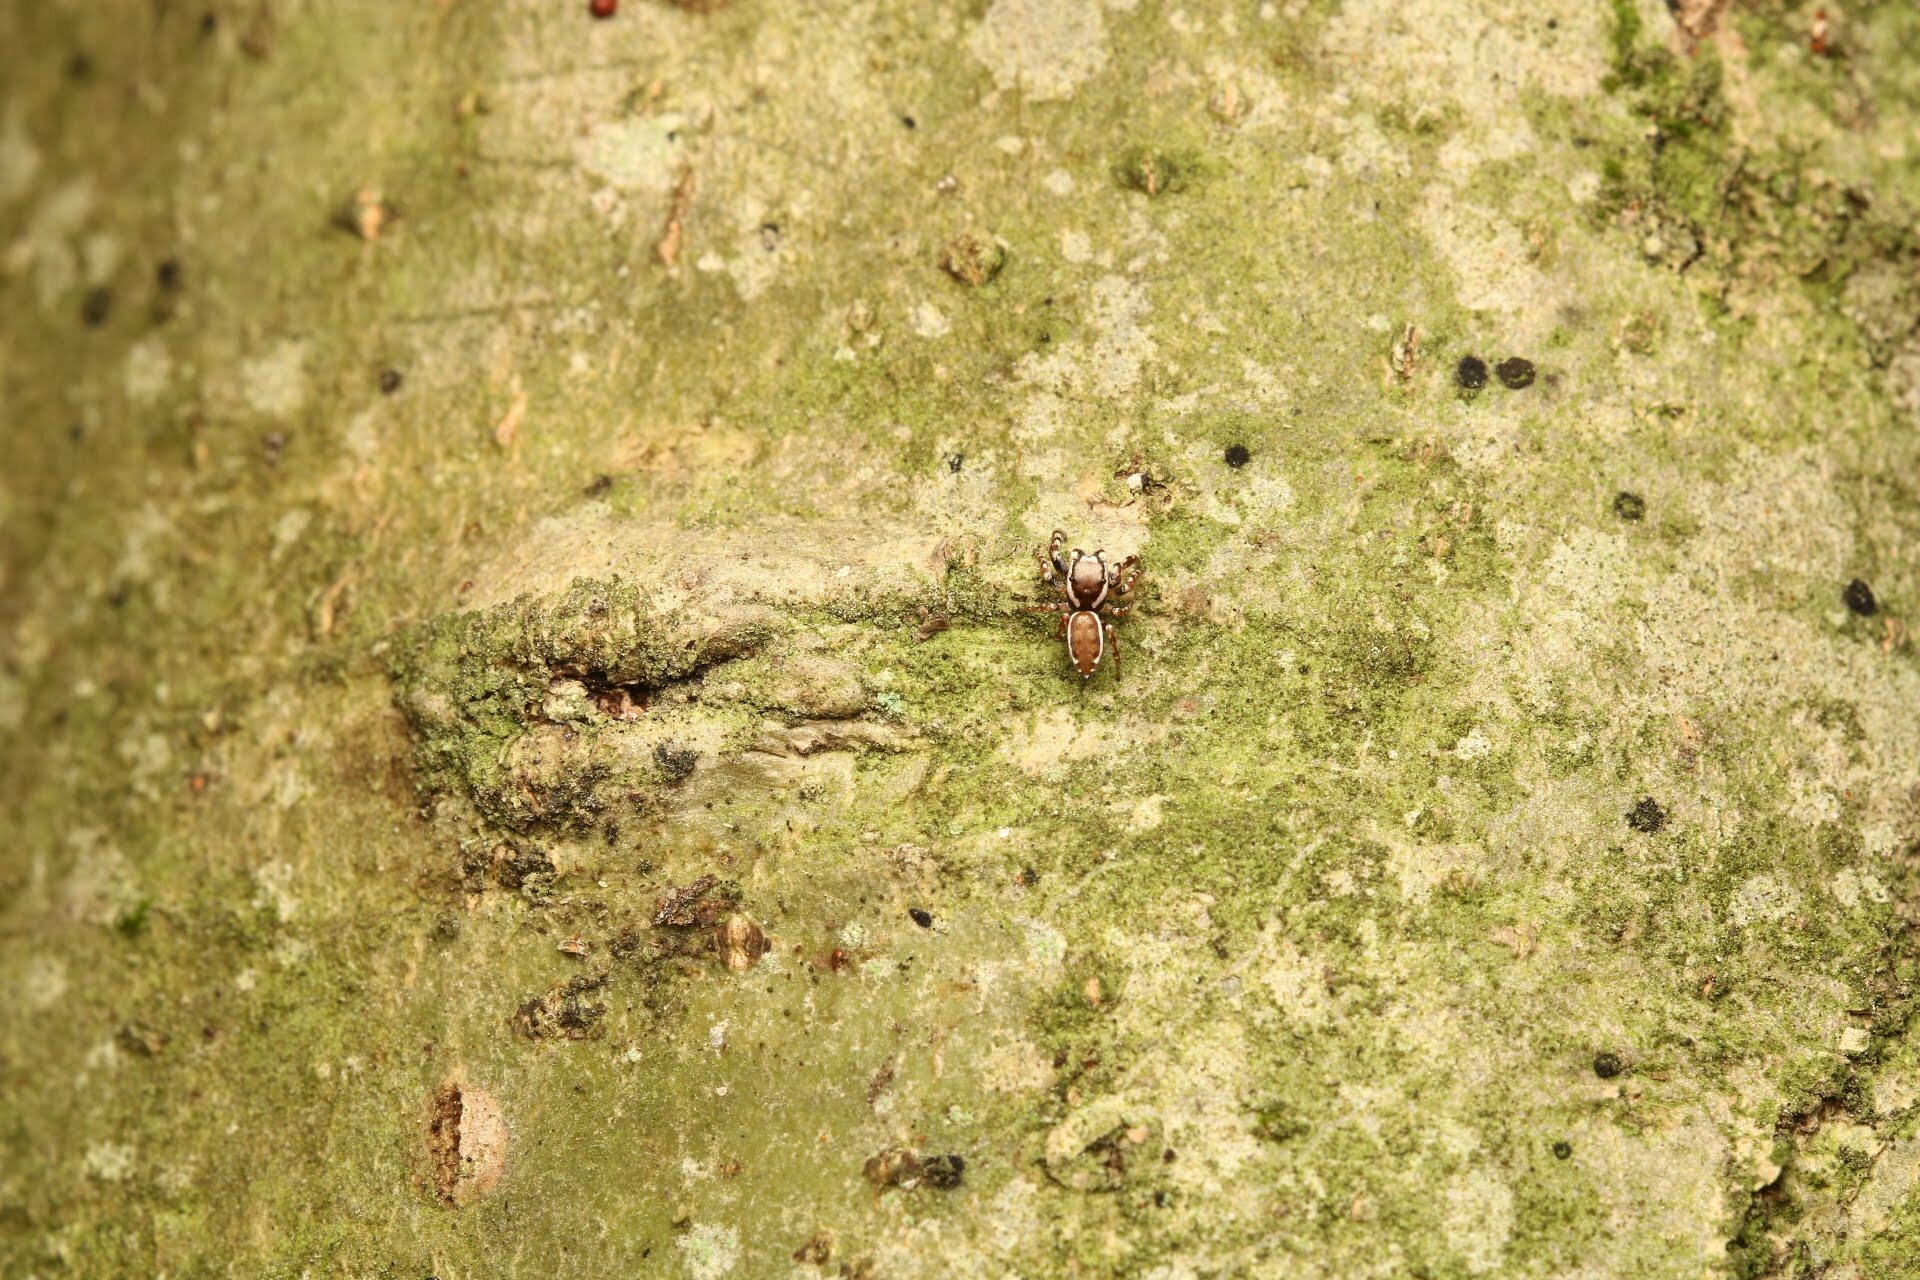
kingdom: Animalia
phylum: Arthropoda
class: Arachnida
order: Araneae
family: Salticidae
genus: Pelegrina
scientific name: Pelegrina proterva
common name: Common white-cheeked jumping spider
